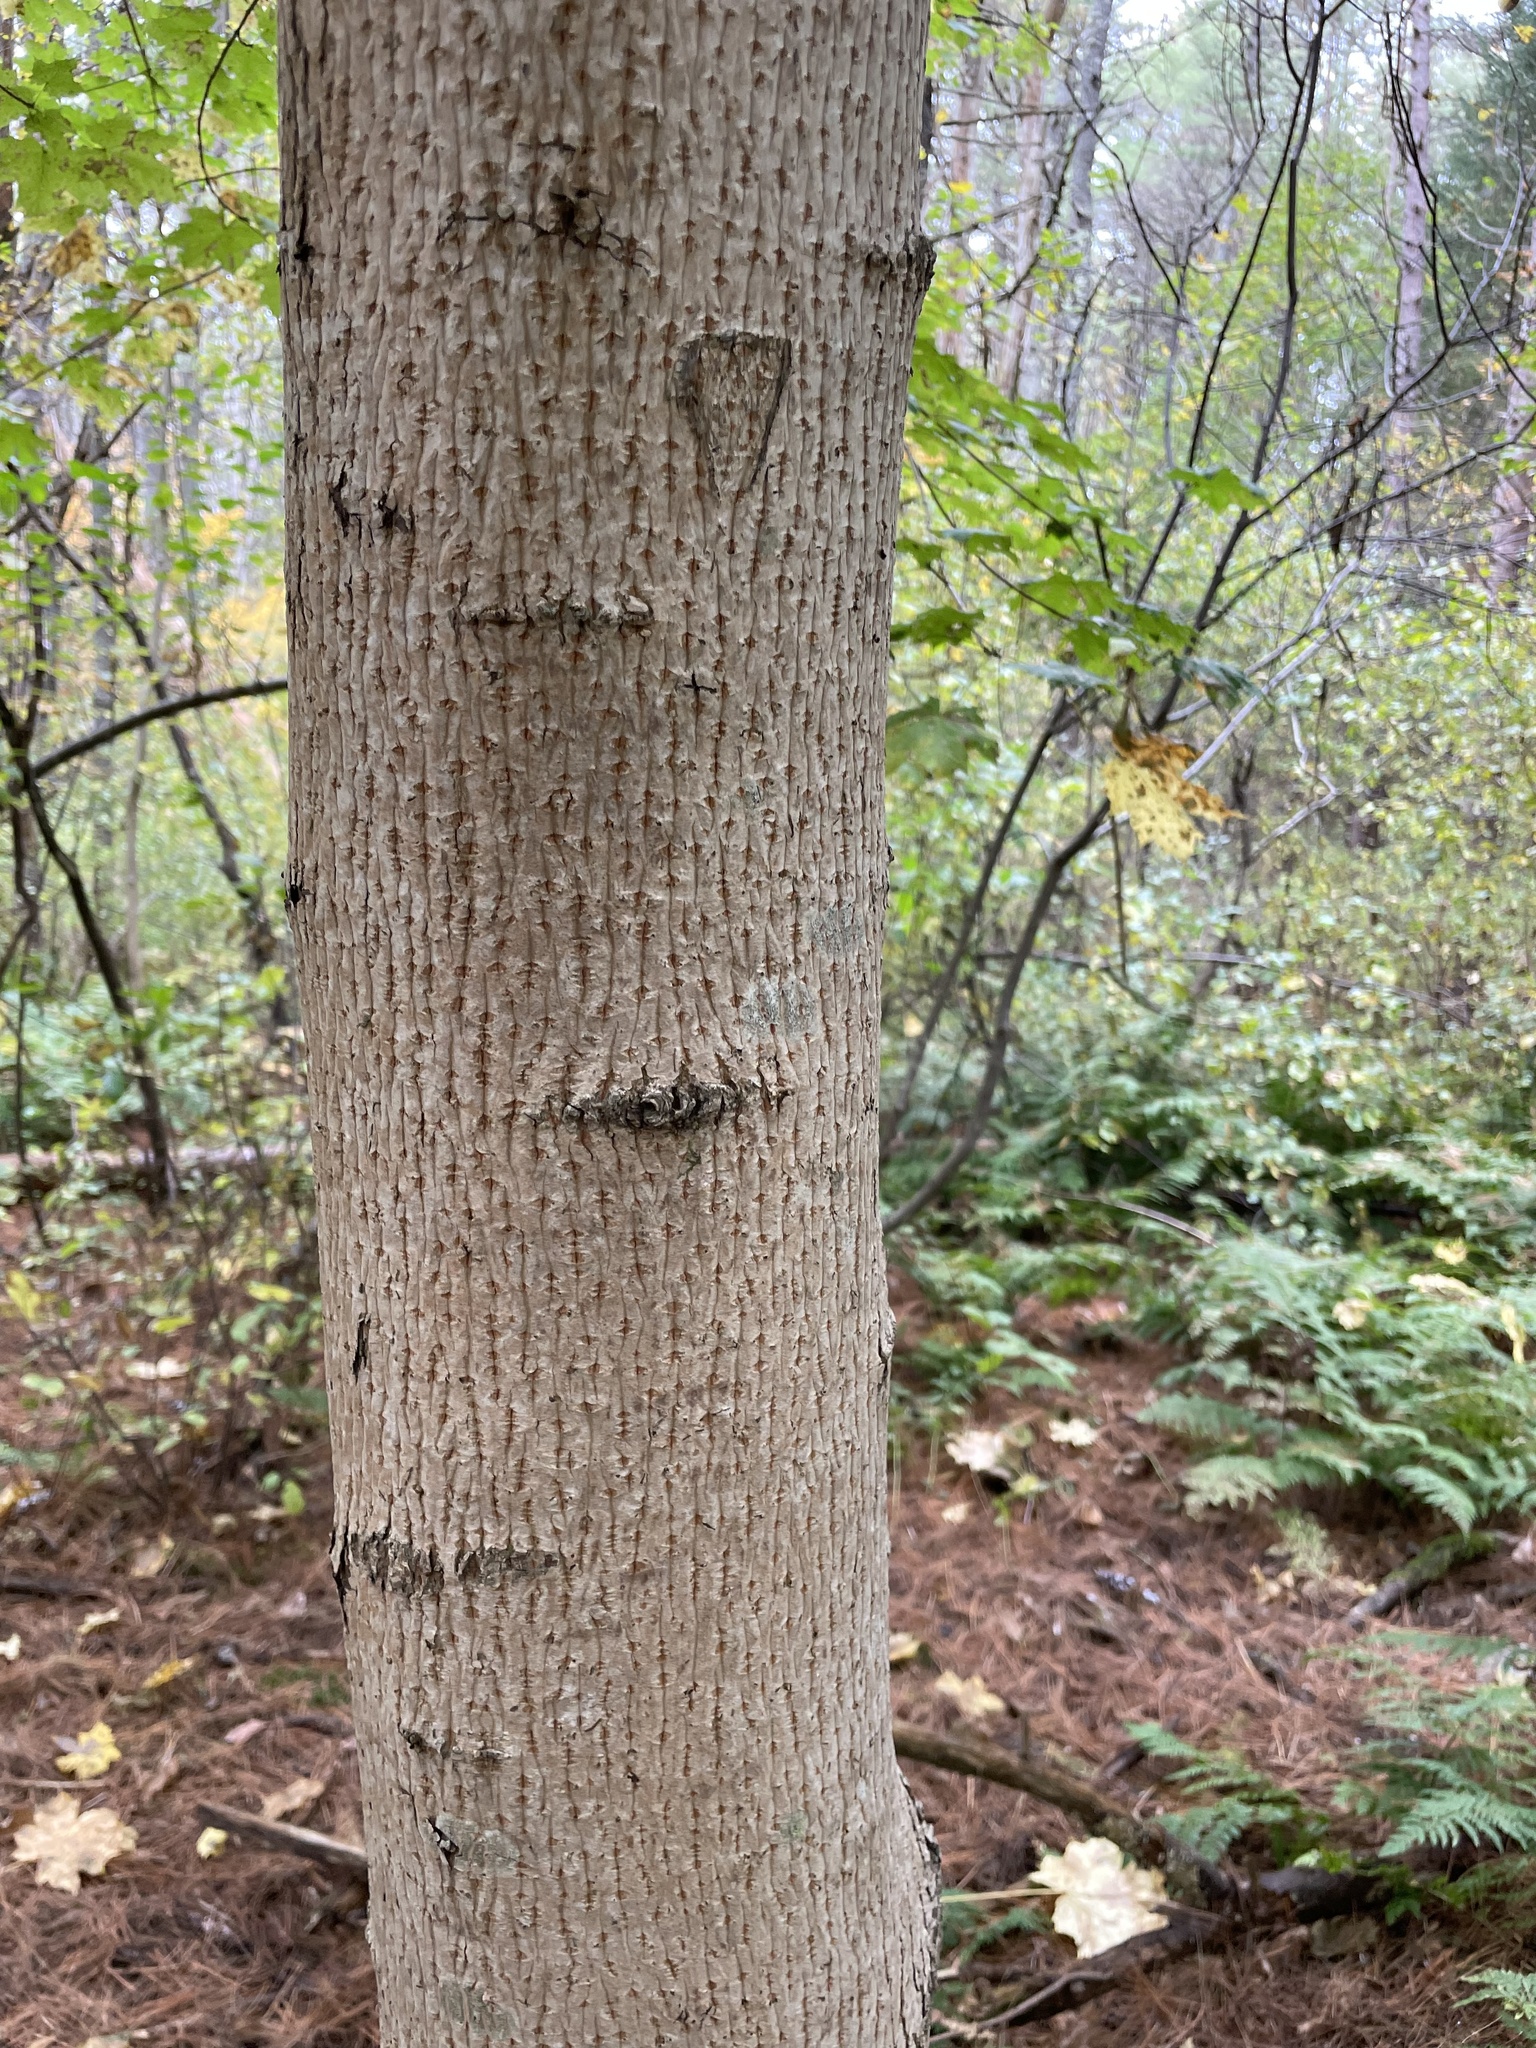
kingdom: Plantae
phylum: Tracheophyta
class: Magnoliopsida
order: Sapindales
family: Sapindaceae
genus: Acer
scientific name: Acer platanoides
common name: Norway maple
